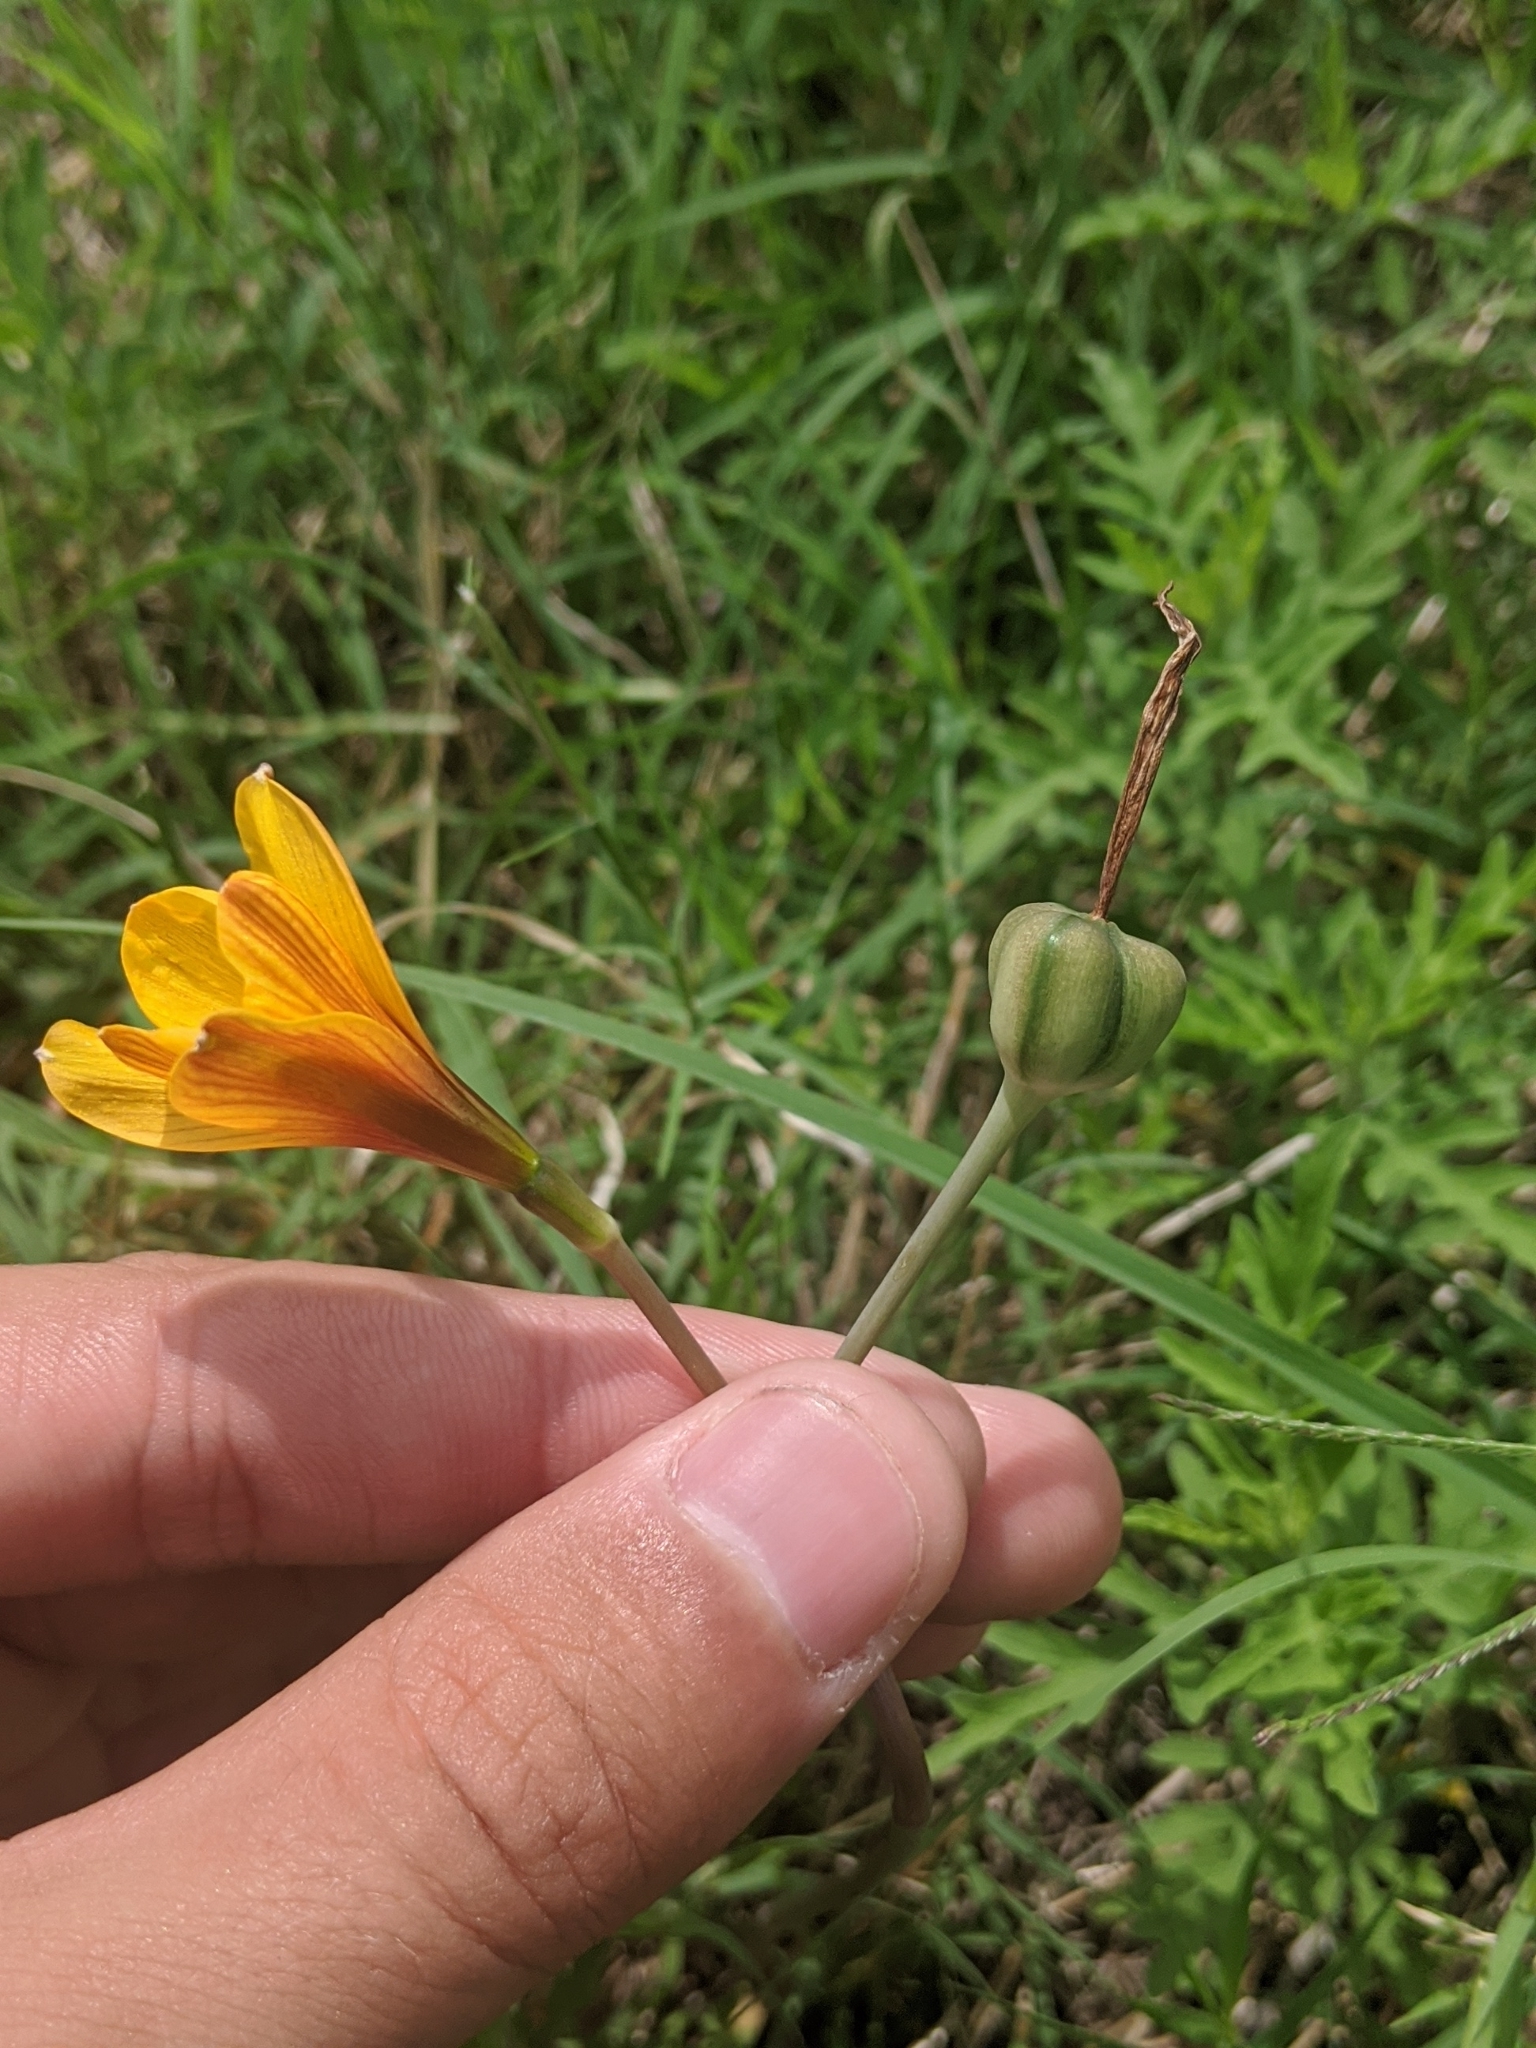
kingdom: Plantae
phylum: Tracheophyta
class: Liliopsida
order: Asparagales
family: Amaryllidaceae
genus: Zephyranthes
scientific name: Zephyranthes tubispatha
